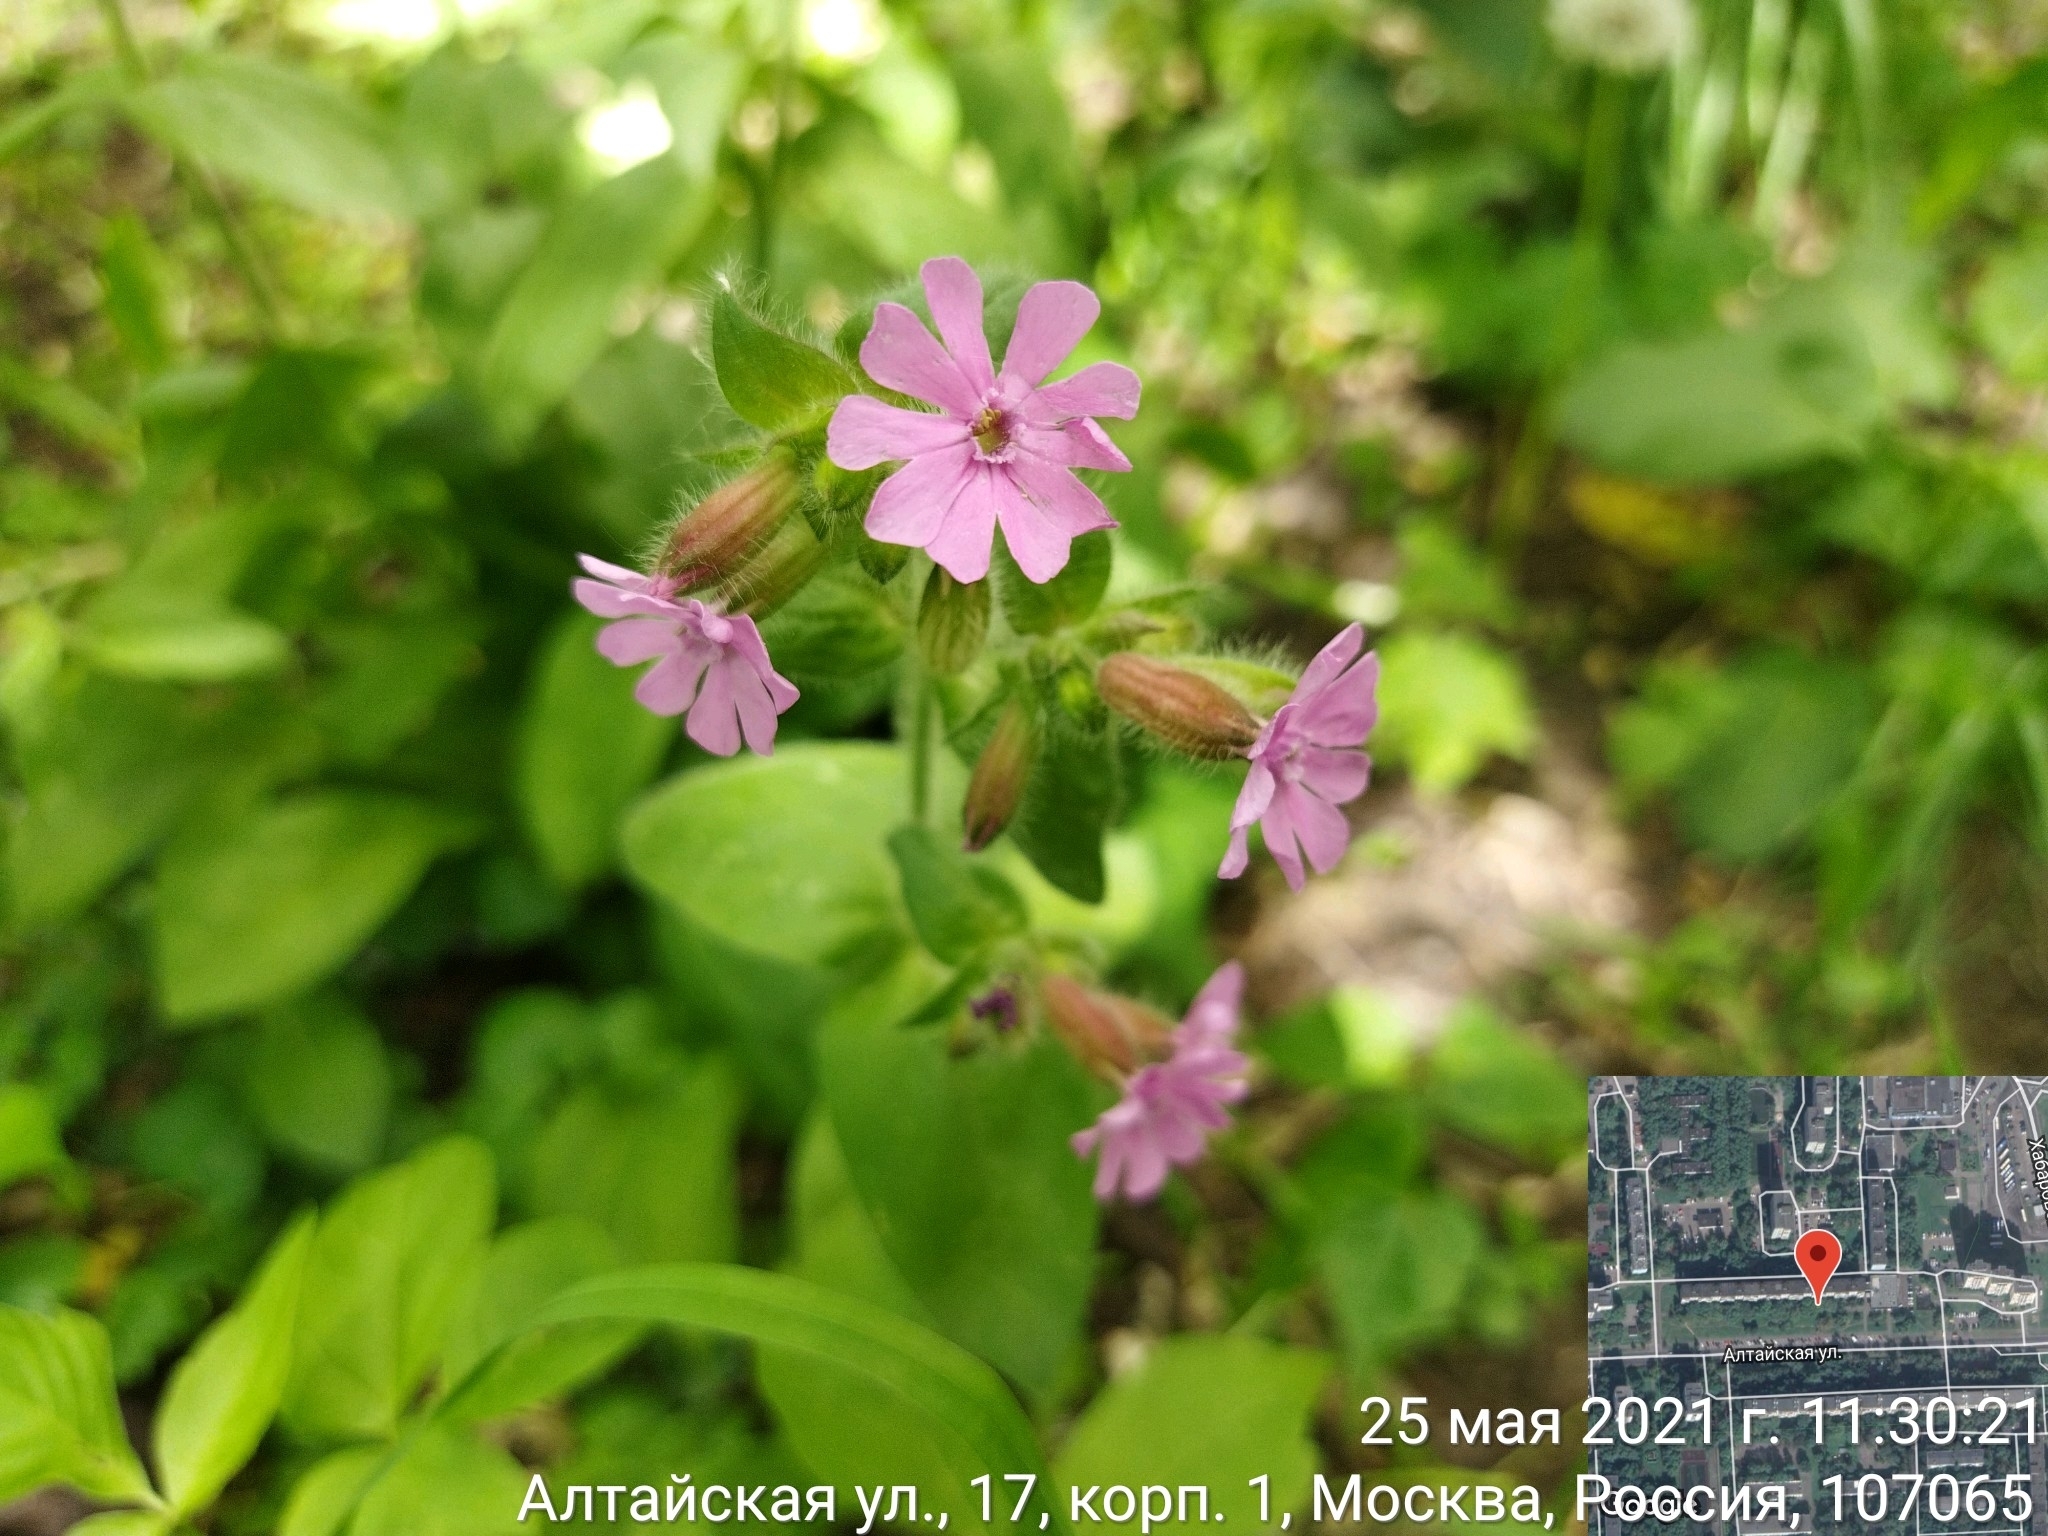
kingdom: Plantae
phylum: Tracheophyta
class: Magnoliopsida
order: Caryophyllales
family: Caryophyllaceae
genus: Silene
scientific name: Silene dioica
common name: Red campion
